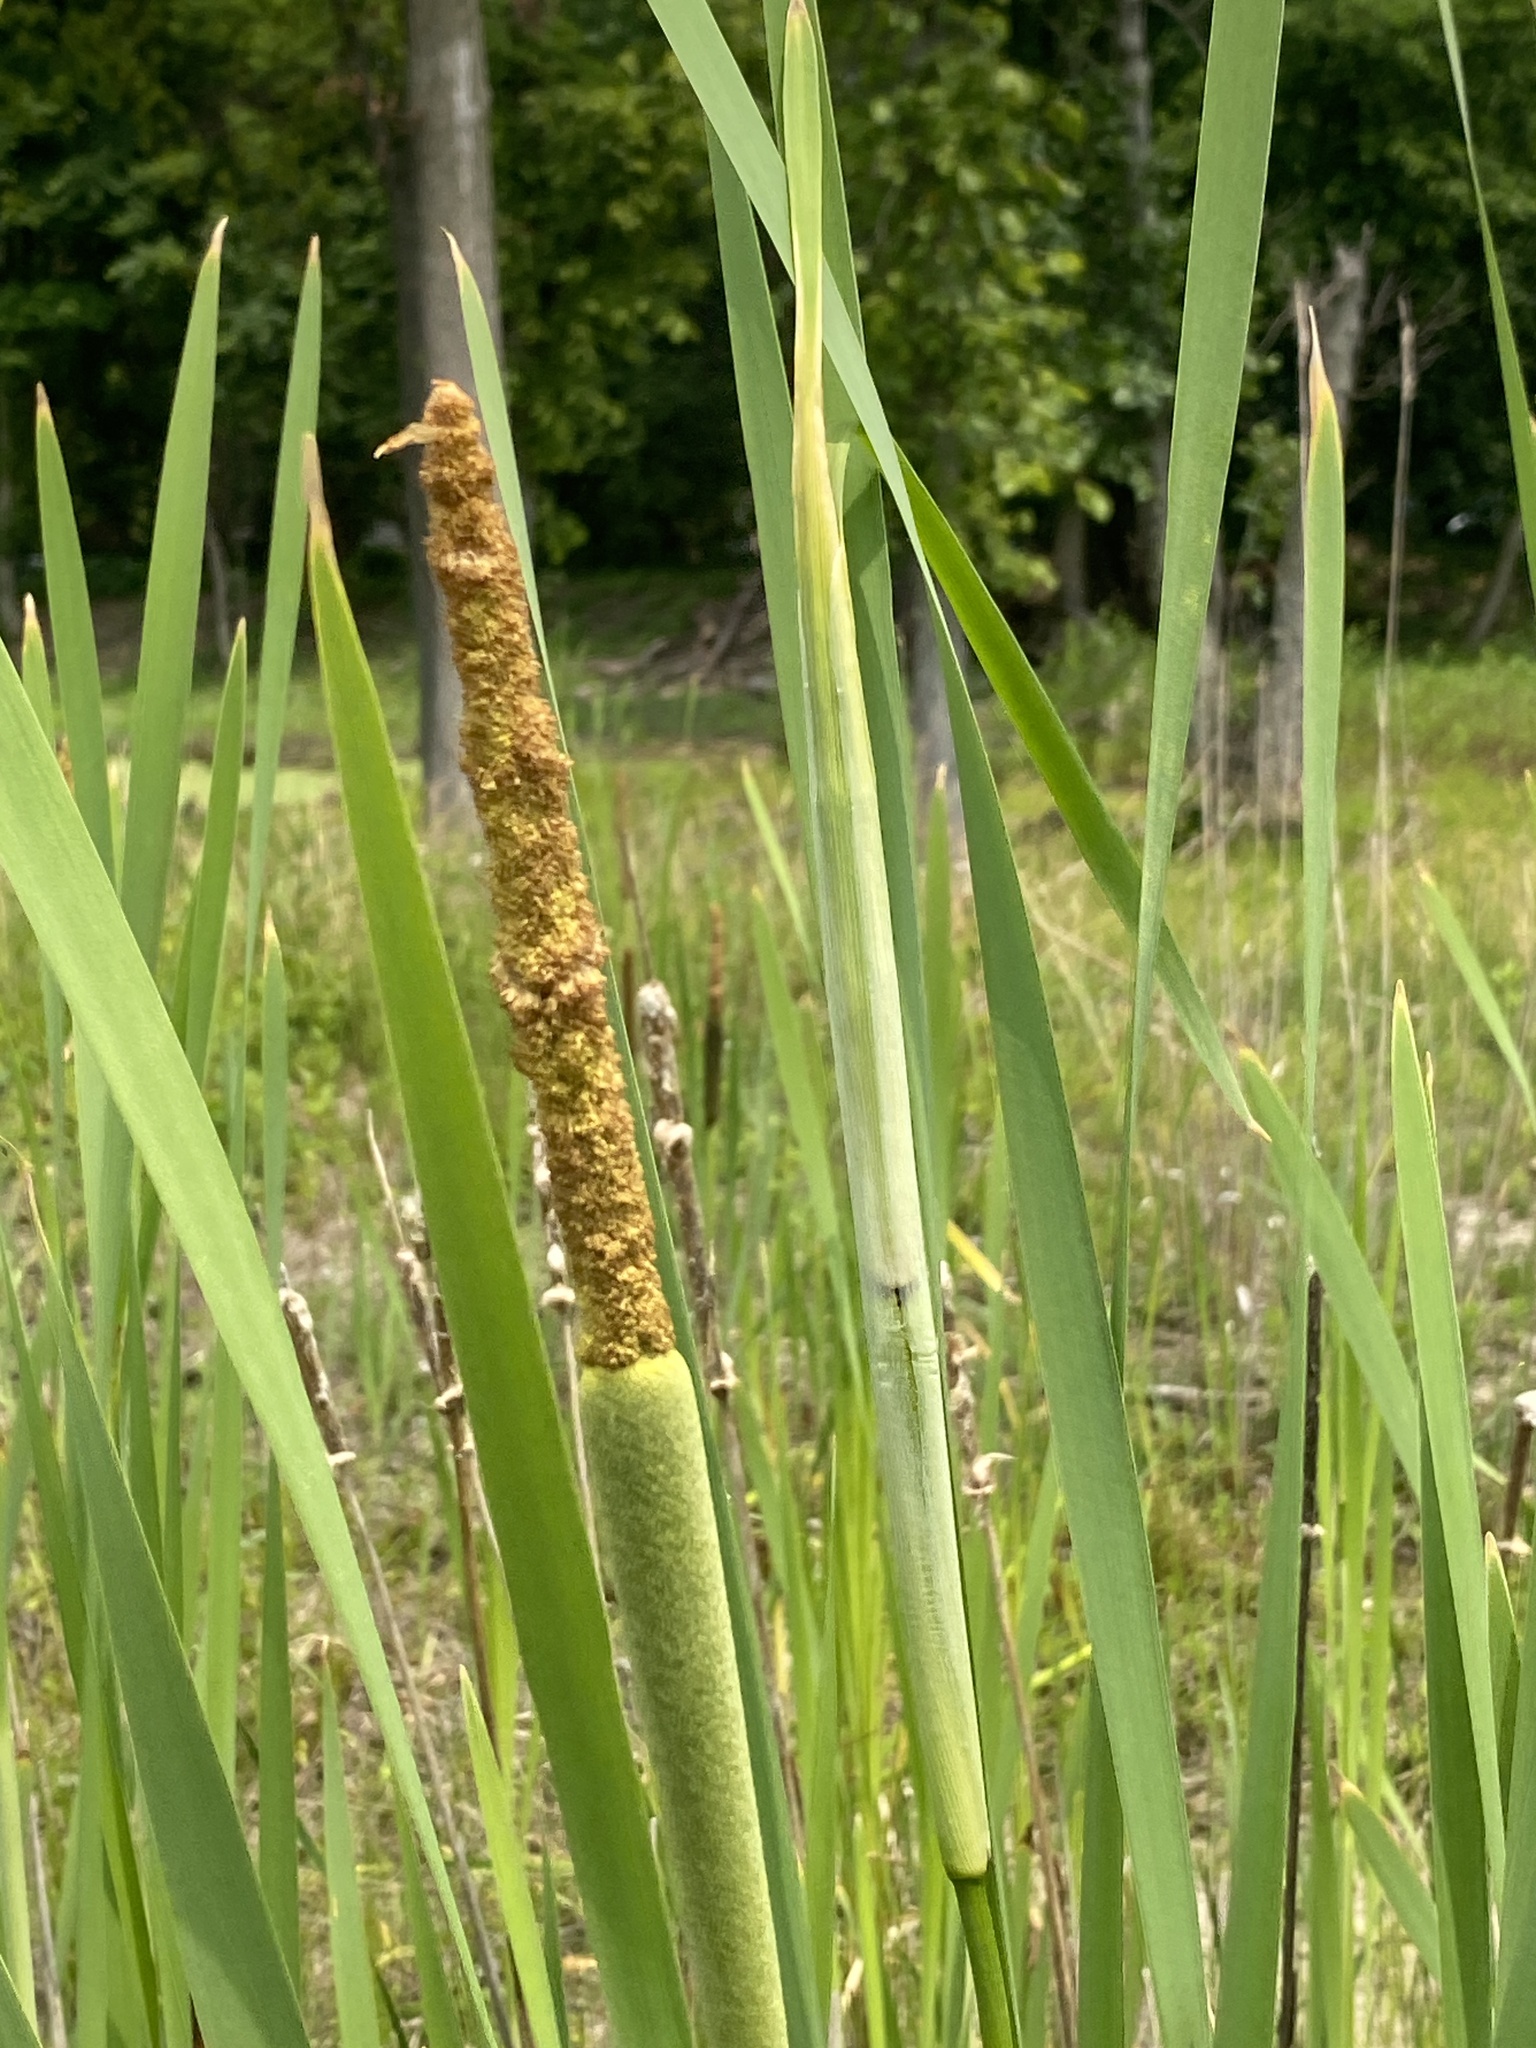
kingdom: Plantae
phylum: Tracheophyta
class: Liliopsida
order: Poales
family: Typhaceae
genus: Typha
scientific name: Typha latifolia
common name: Broadleaf cattail
